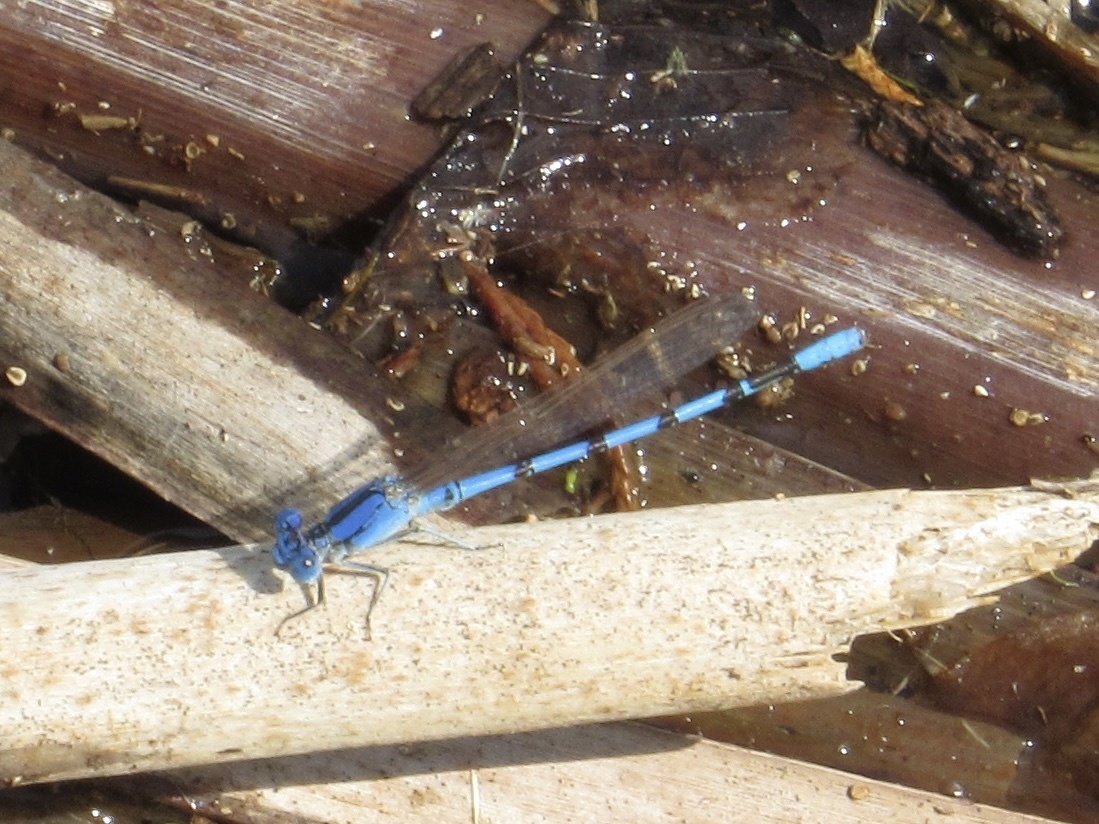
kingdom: Animalia
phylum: Arthropoda
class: Insecta
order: Odonata
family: Coenagrionidae
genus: Argia
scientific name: Argia nahuana
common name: Aztec dancer
